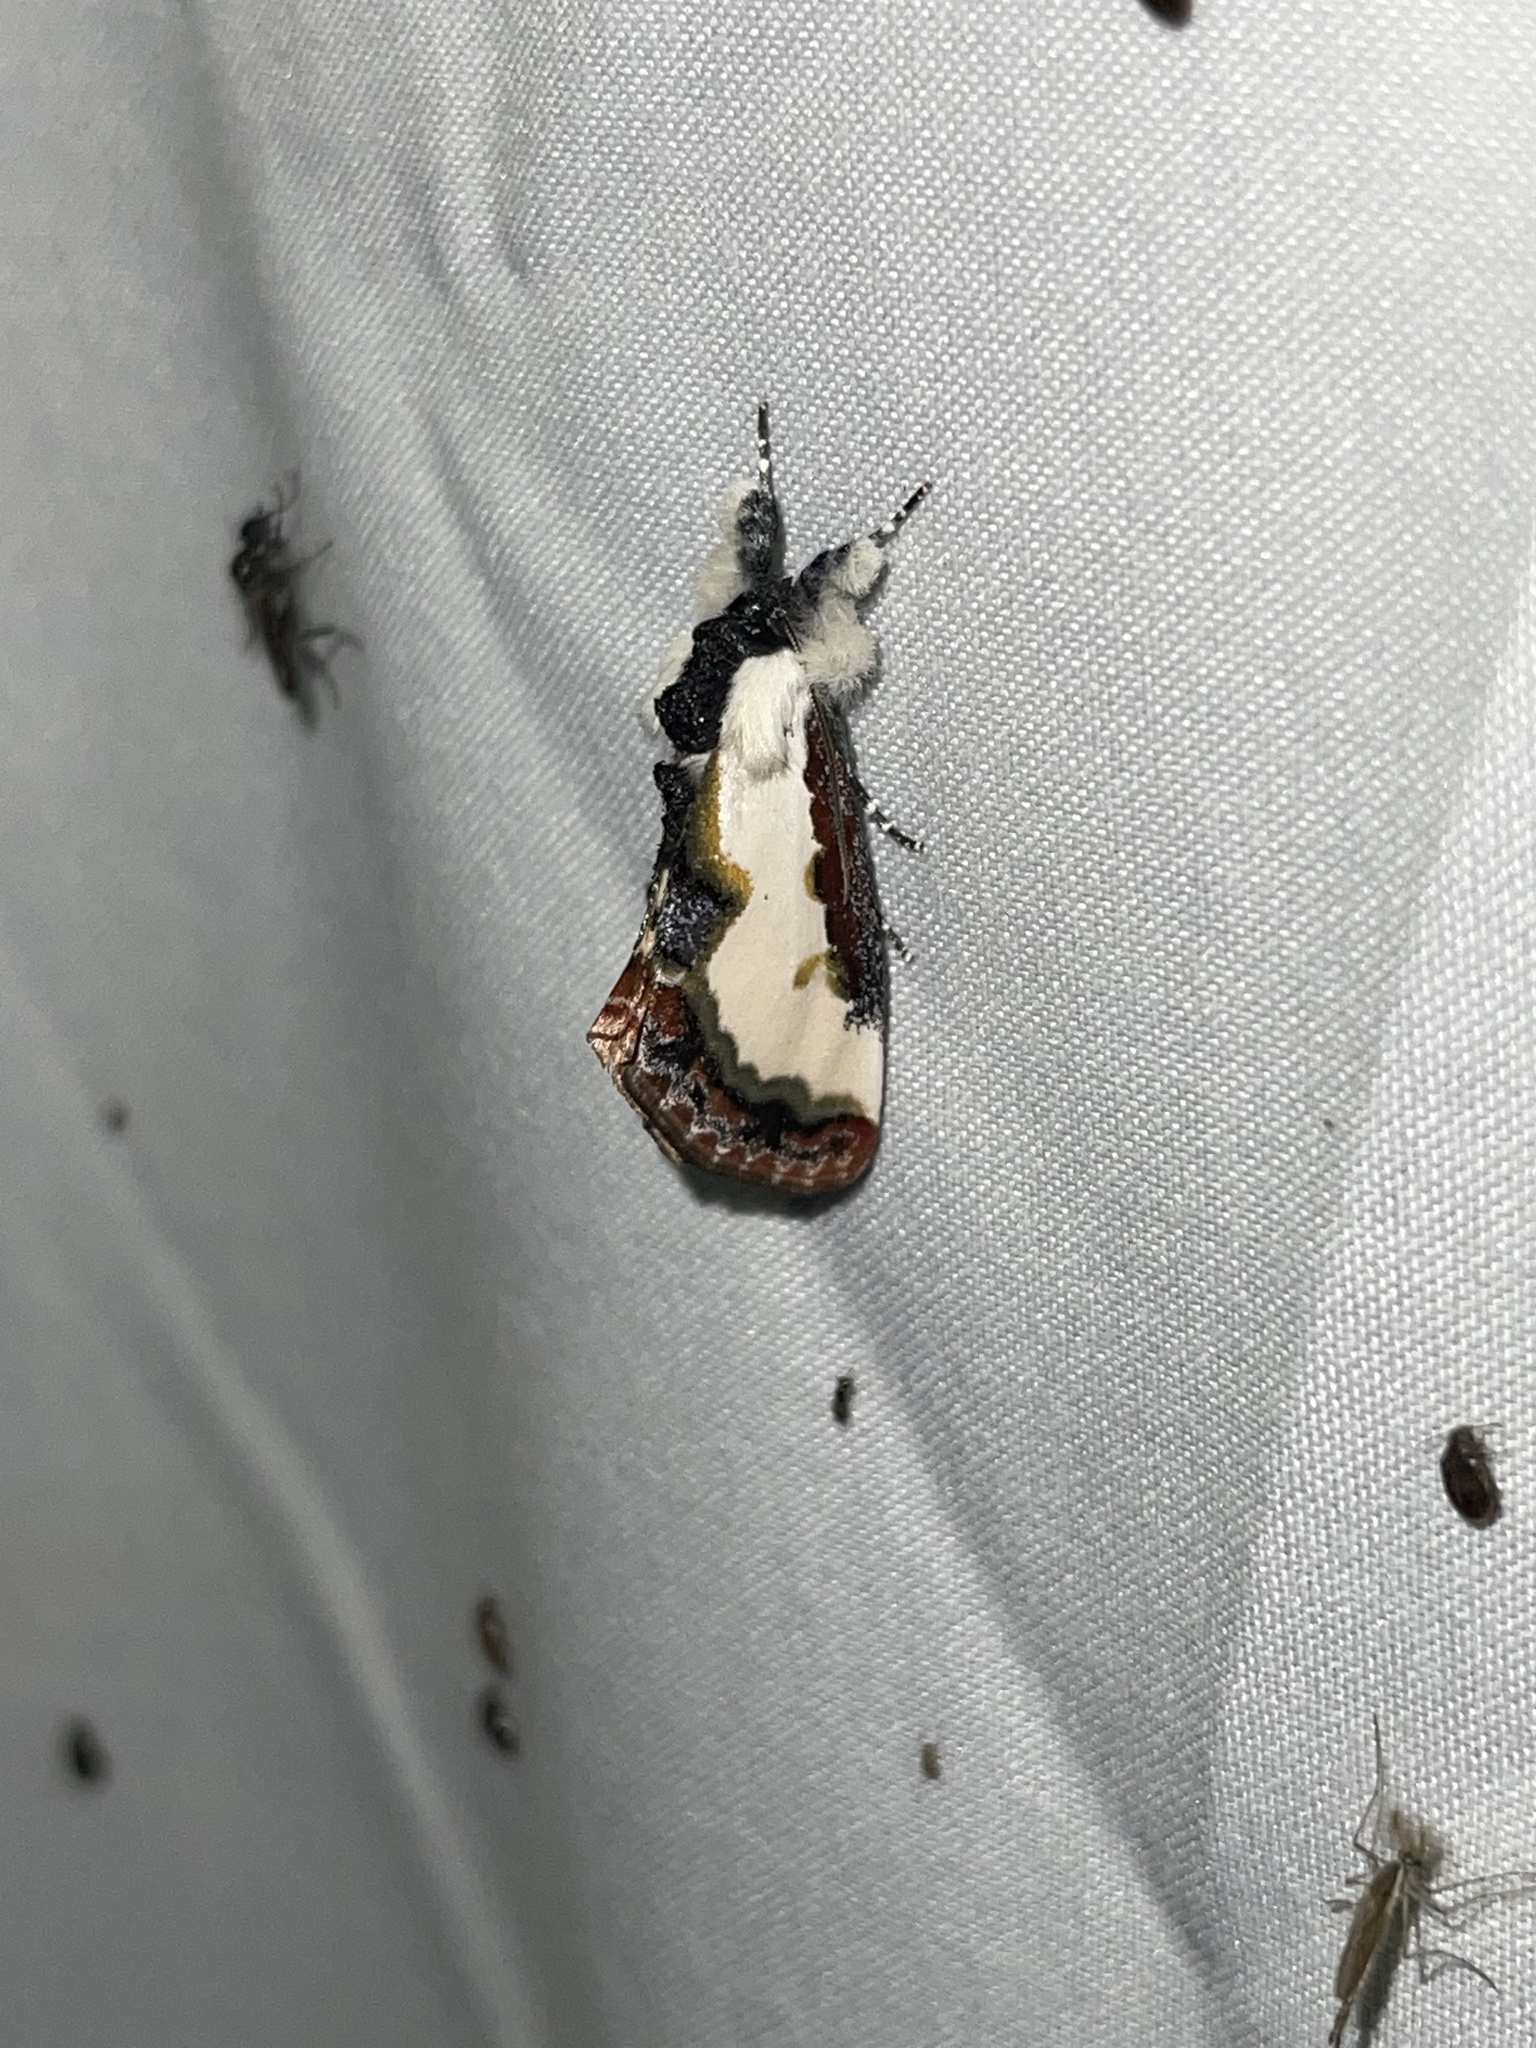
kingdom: Animalia
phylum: Arthropoda
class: Insecta
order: Lepidoptera
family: Noctuidae
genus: Eudryas
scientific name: Eudryas unio
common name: Pearly wood-nymph
